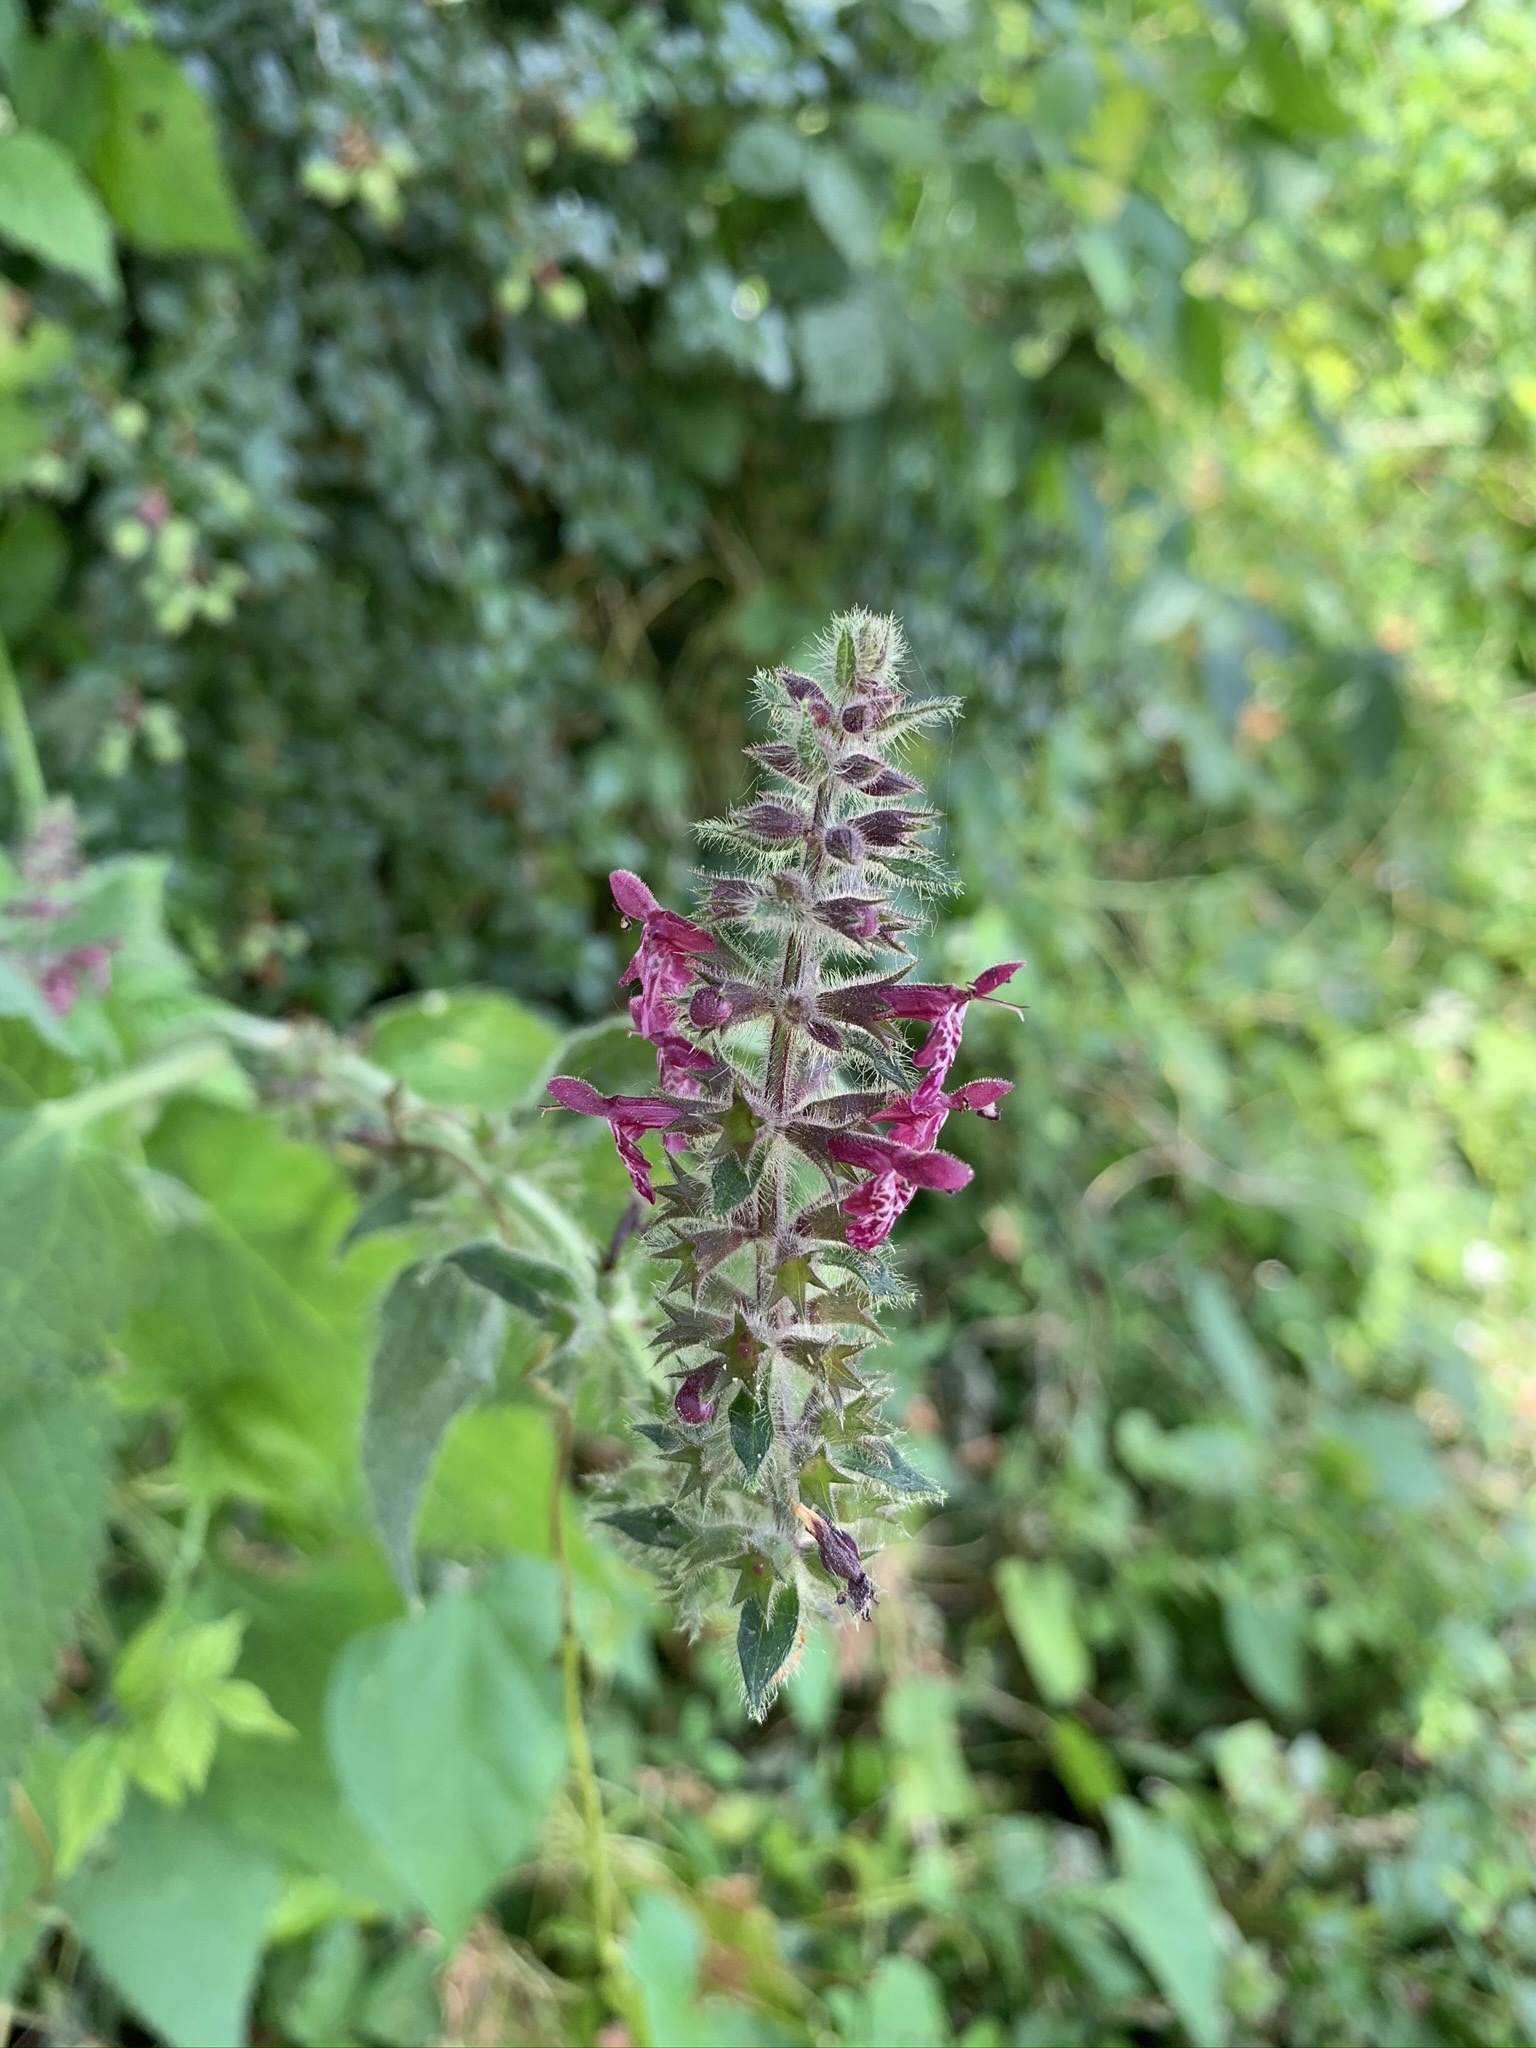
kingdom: Plantae
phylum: Tracheophyta
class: Magnoliopsida
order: Lamiales
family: Lamiaceae
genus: Stachys
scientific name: Stachys sylvatica
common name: Hedge woundwort
